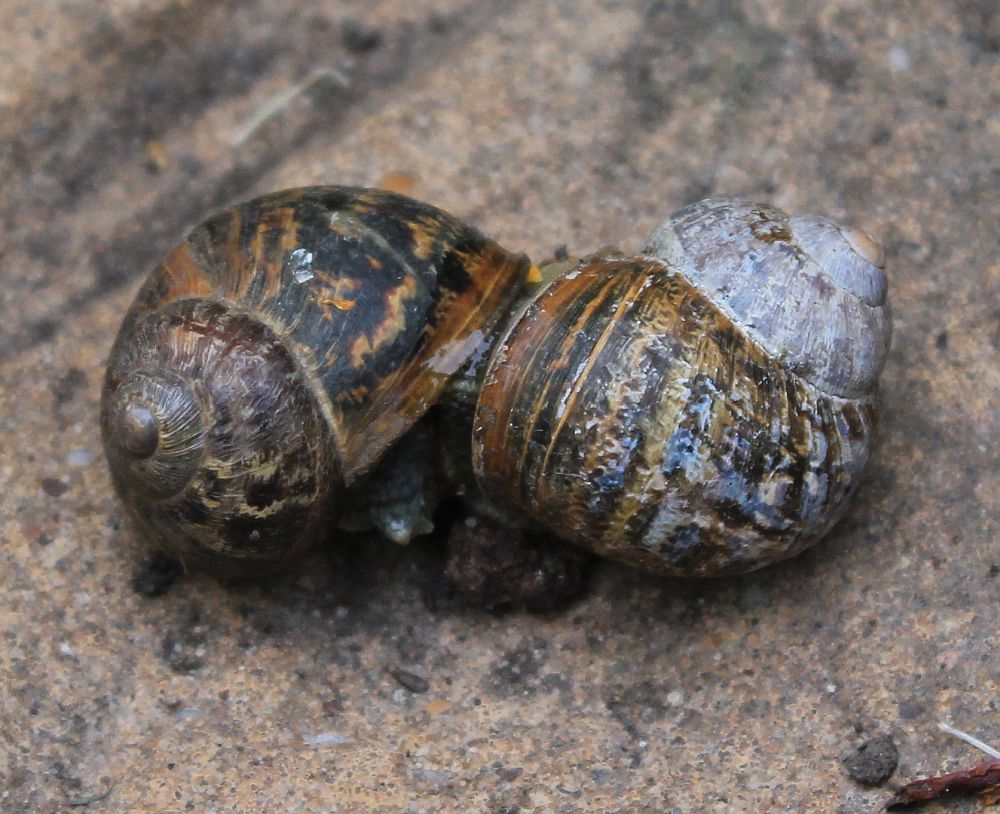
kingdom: Animalia
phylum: Mollusca
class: Gastropoda
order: Stylommatophora
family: Helicidae
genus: Cornu
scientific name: Cornu aspersum
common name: Brown garden snail
